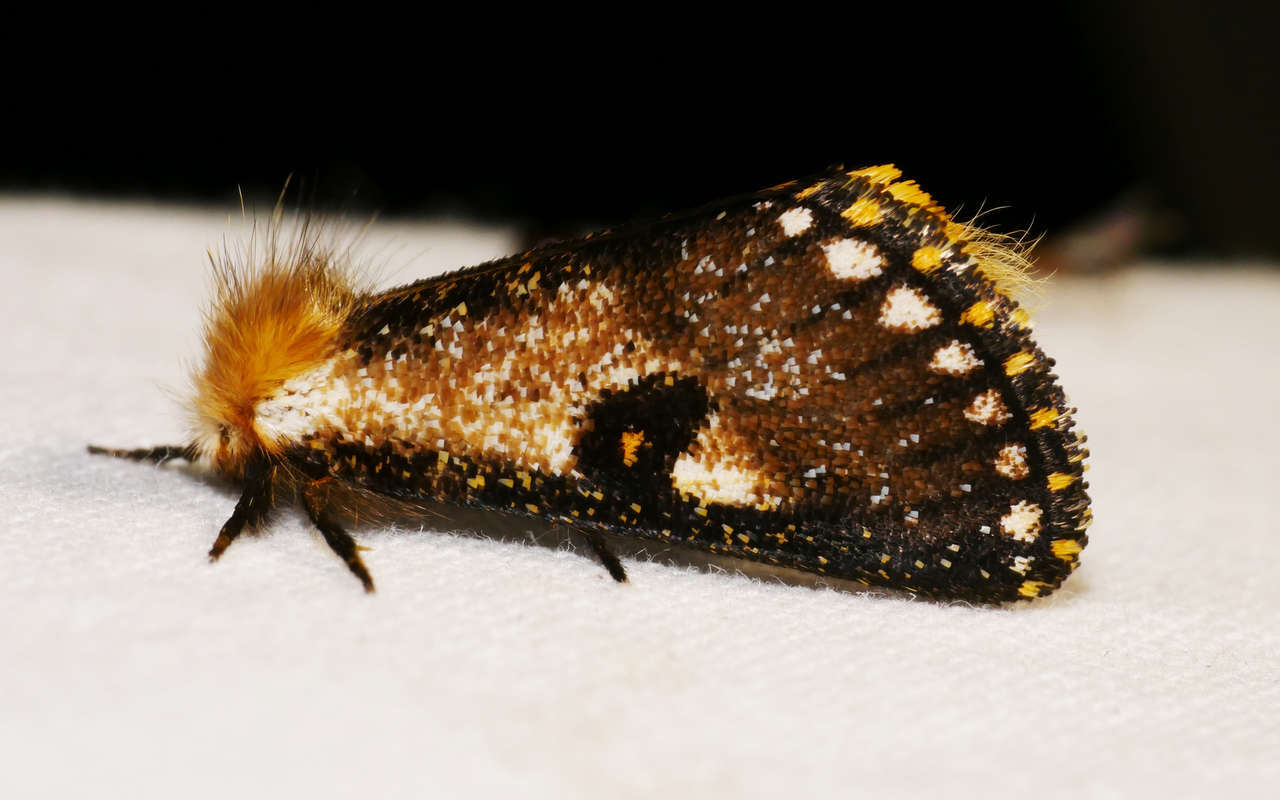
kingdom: Animalia
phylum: Arthropoda
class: Insecta
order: Lepidoptera
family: Notodontidae
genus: Epicoma
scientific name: Epicoma contristis
